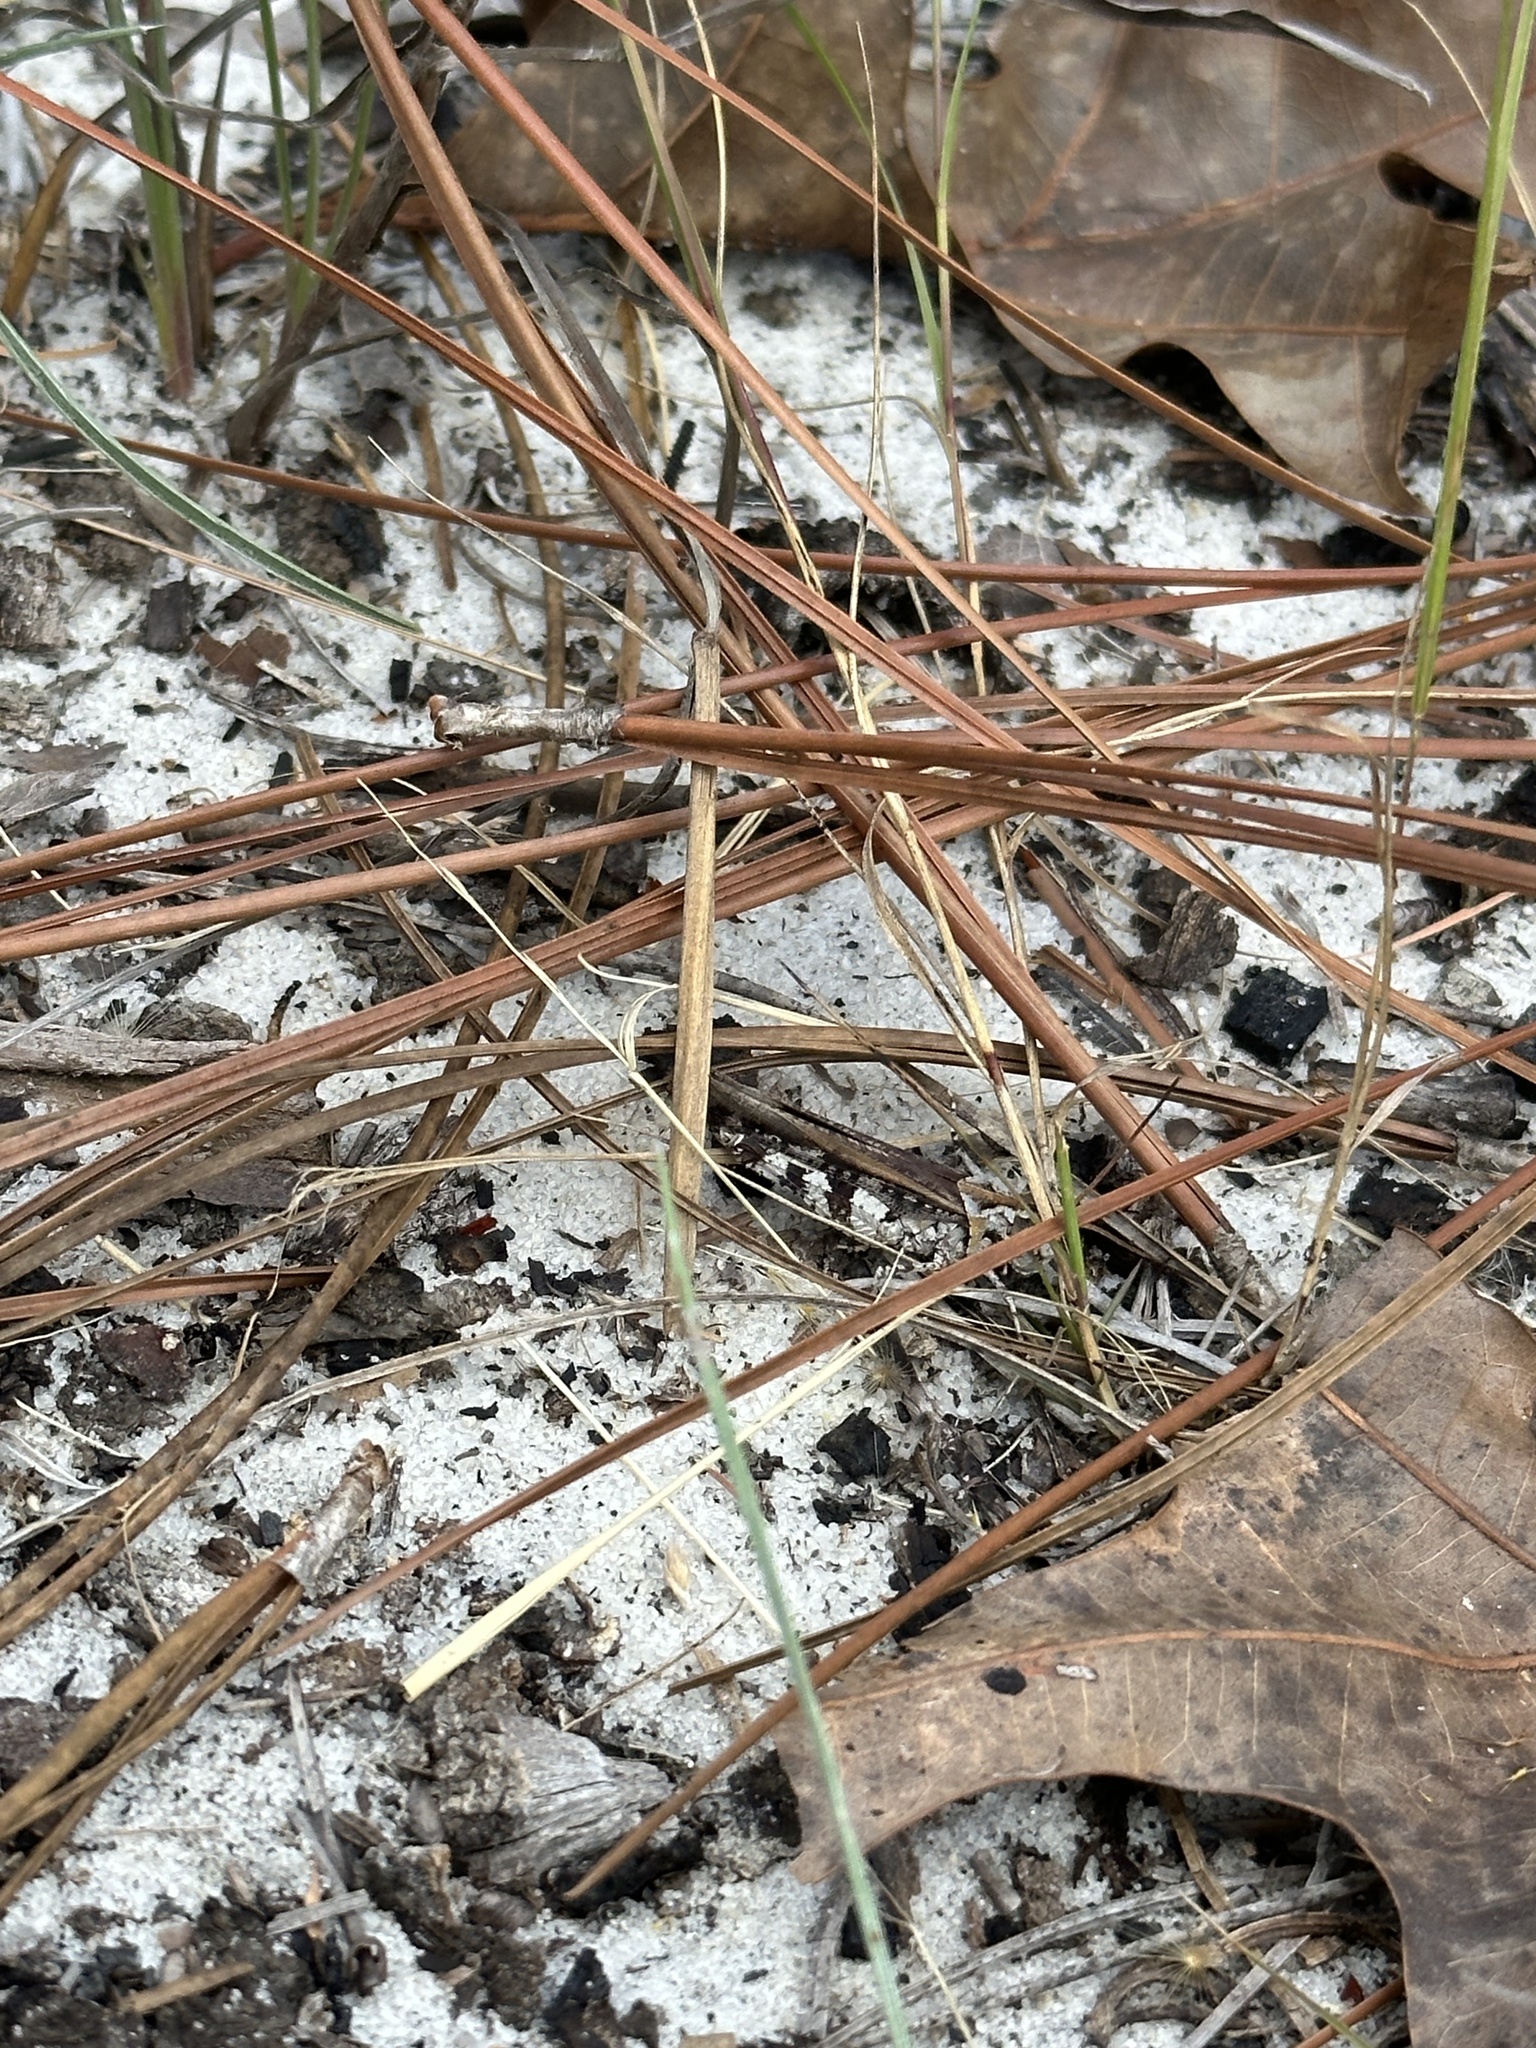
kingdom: Animalia
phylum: Arthropoda
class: Insecta
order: Orthoptera
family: Acrididae
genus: Psinidia
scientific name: Psinidia fenestralis
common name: Long-horned locust
